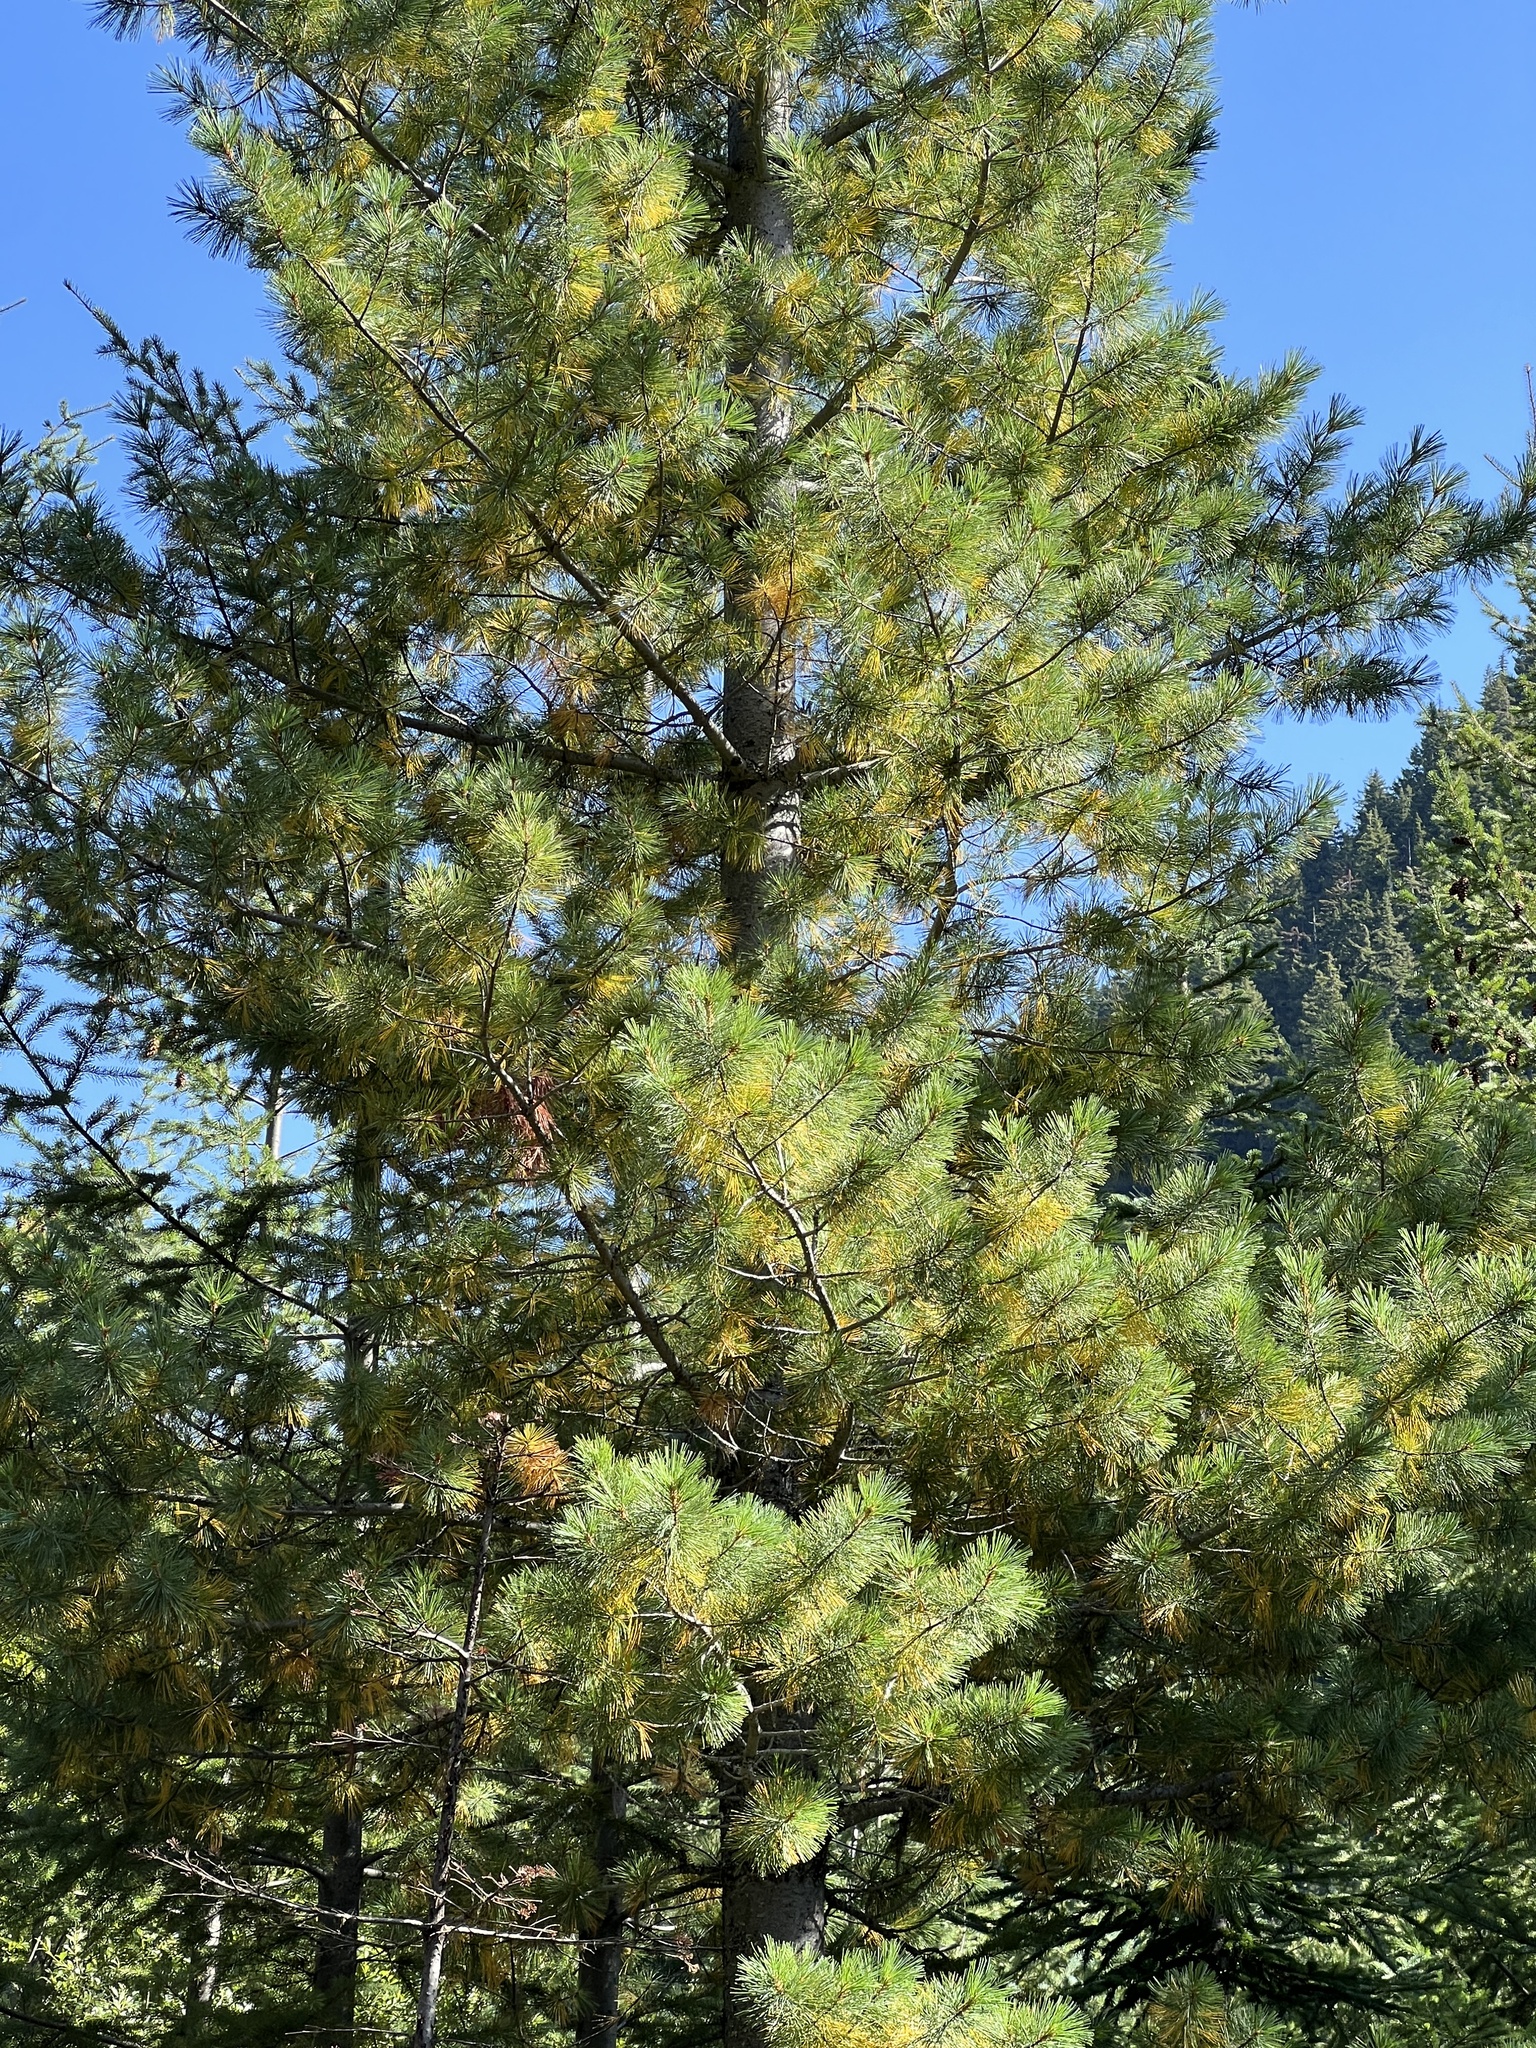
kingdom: Plantae
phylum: Tracheophyta
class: Pinopsida
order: Pinales
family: Pinaceae
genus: Pinus
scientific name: Pinus monticola
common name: Western white pine
